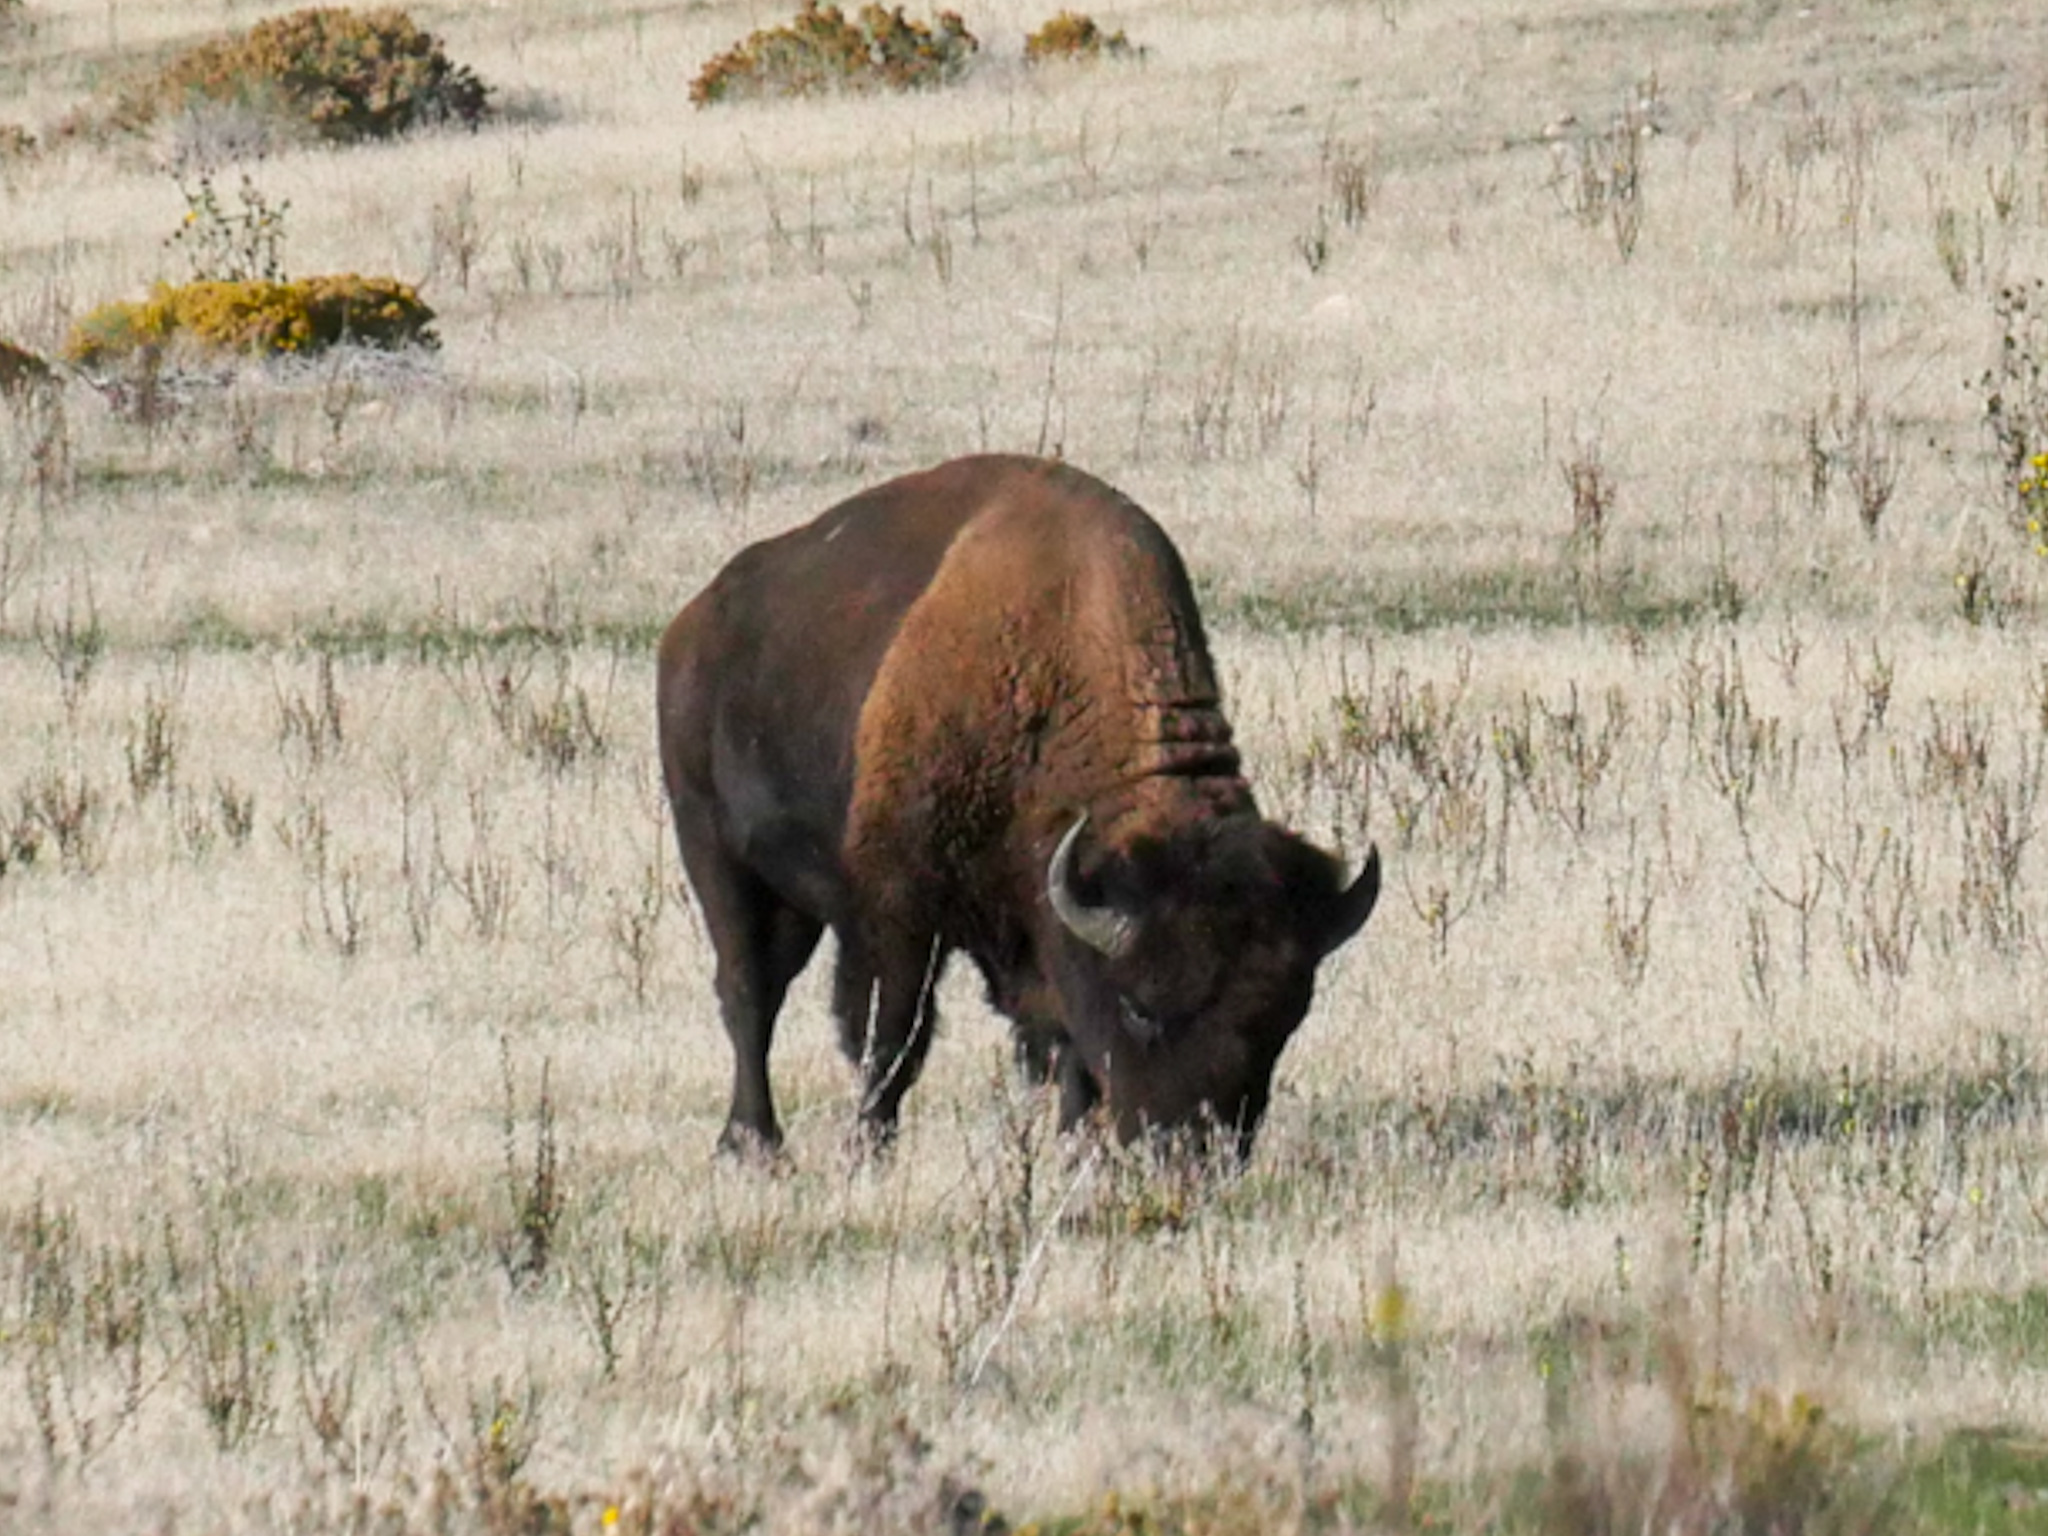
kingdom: Animalia
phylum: Chordata
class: Mammalia
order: Artiodactyla
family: Bovidae
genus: Bison
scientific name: Bison bison
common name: American bison
